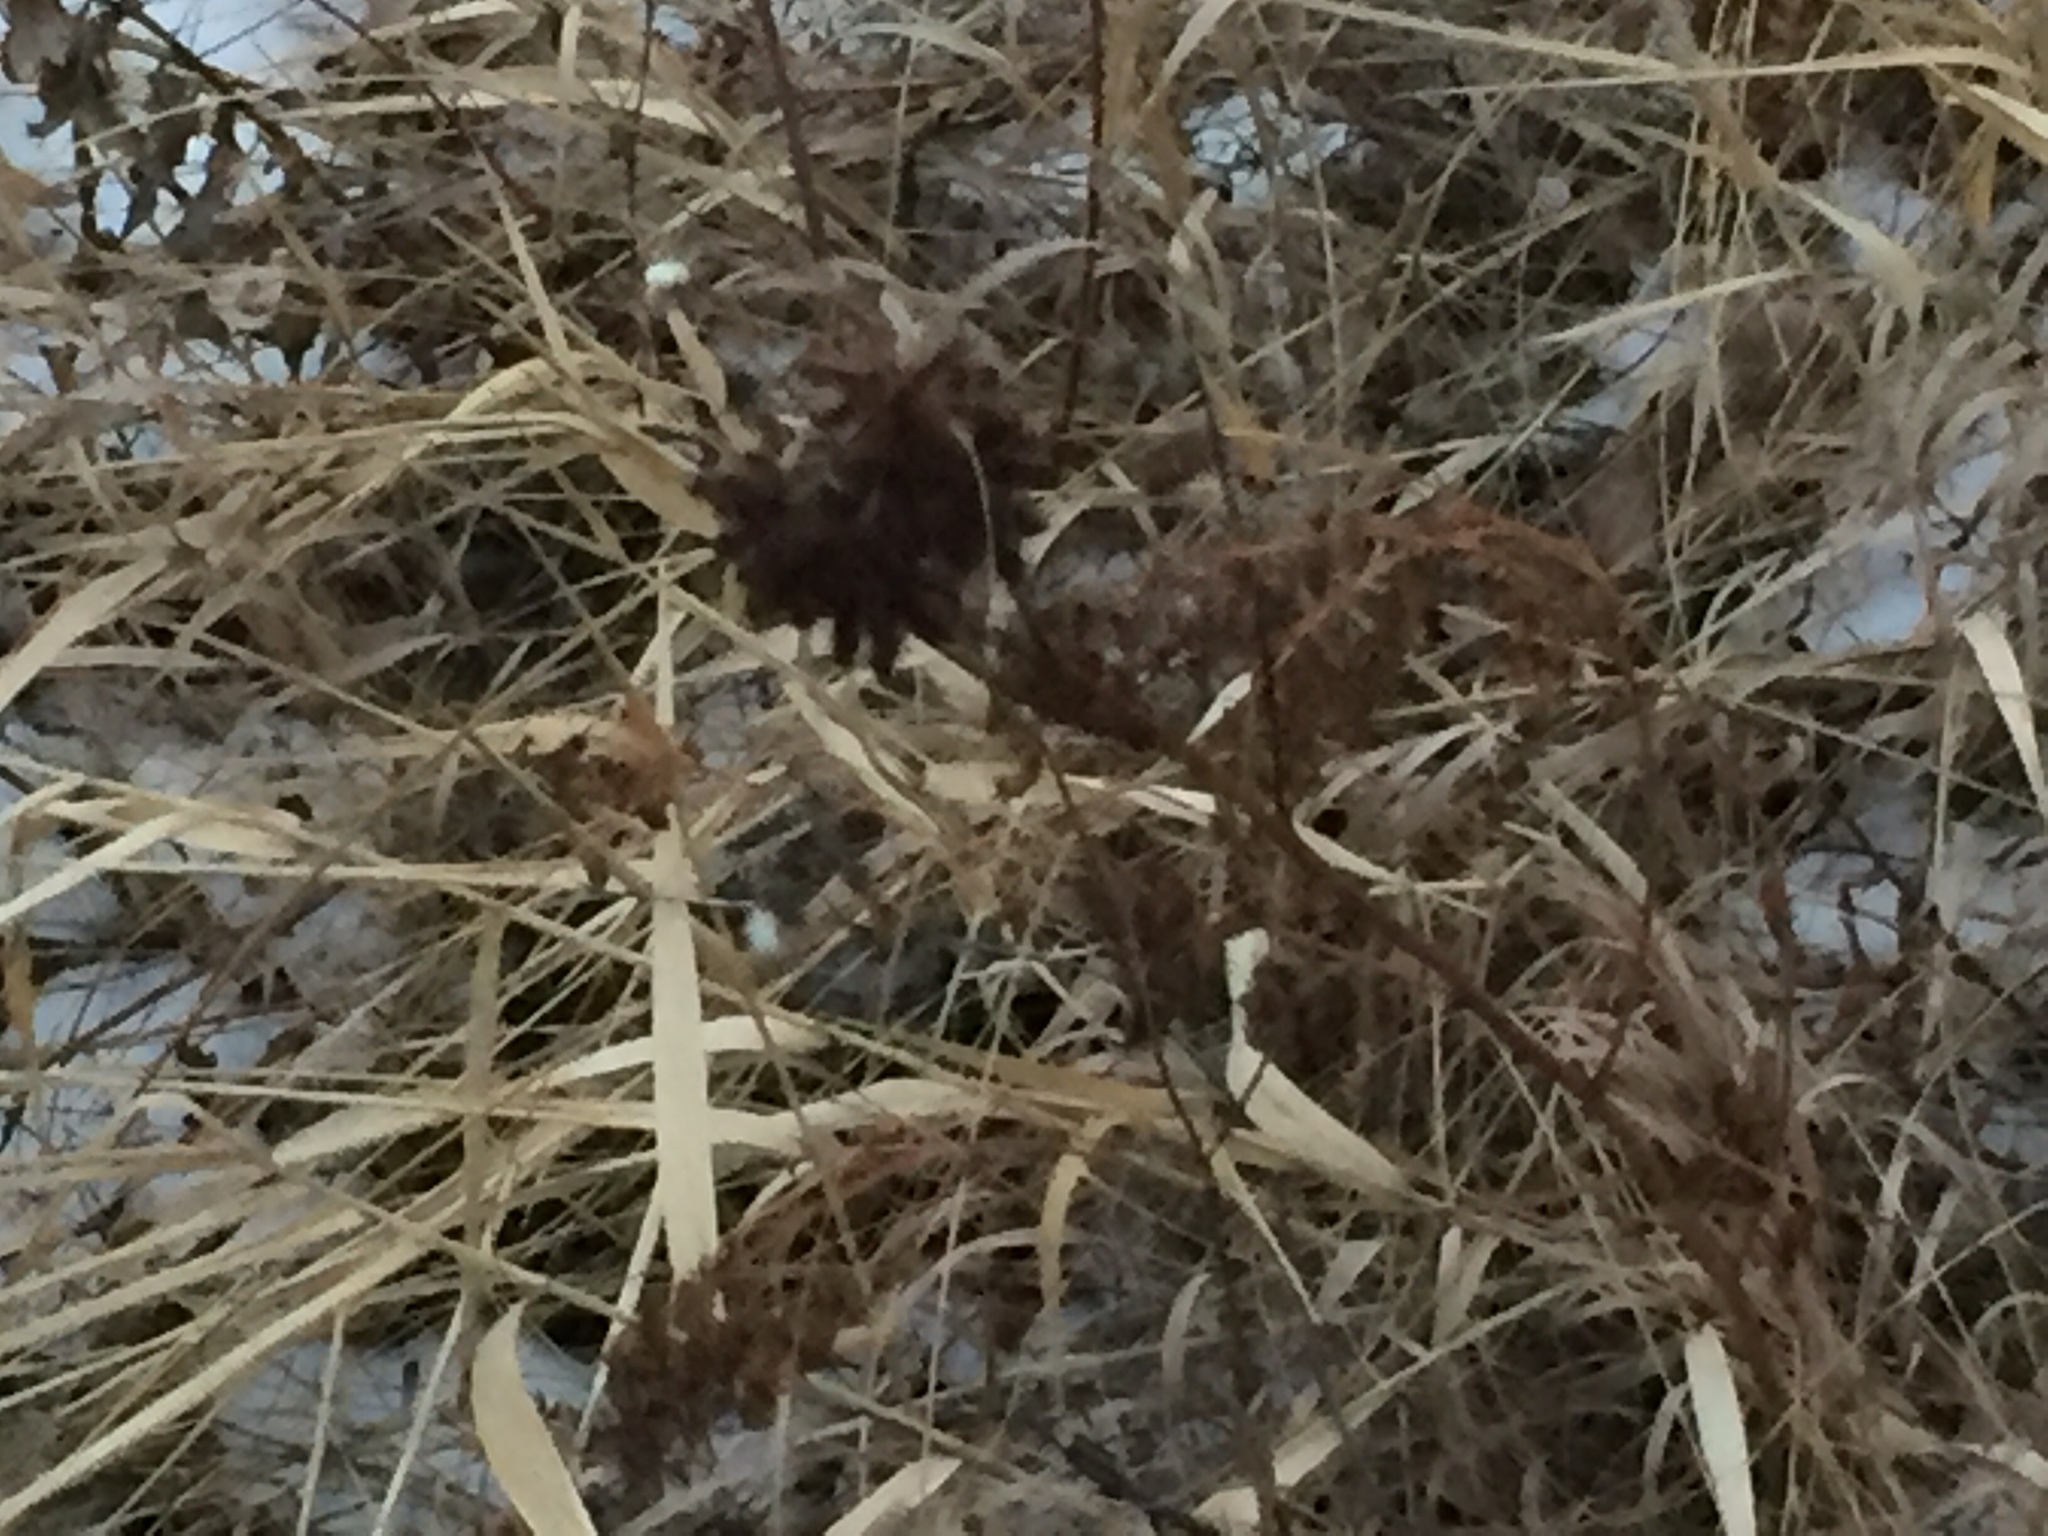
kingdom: Plantae
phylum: Tracheophyta
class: Magnoliopsida
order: Fabales
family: Fabaceae
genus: Glycyrrhiza
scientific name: Glycyrrhiza lepidota
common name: American liquorice
